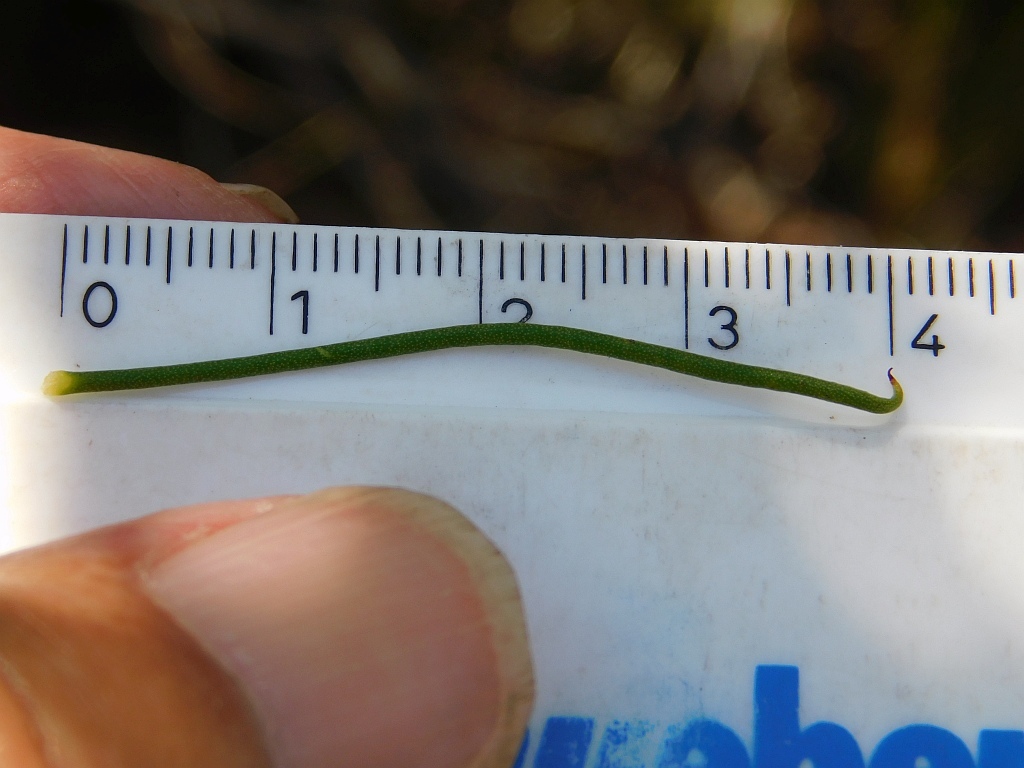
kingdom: Plantae
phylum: Tracheophyta
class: Magnoliopsida
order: Proteales
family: Proteaceae
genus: Protea
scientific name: Protea subulifolia
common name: Awl-leaf sugarbush
